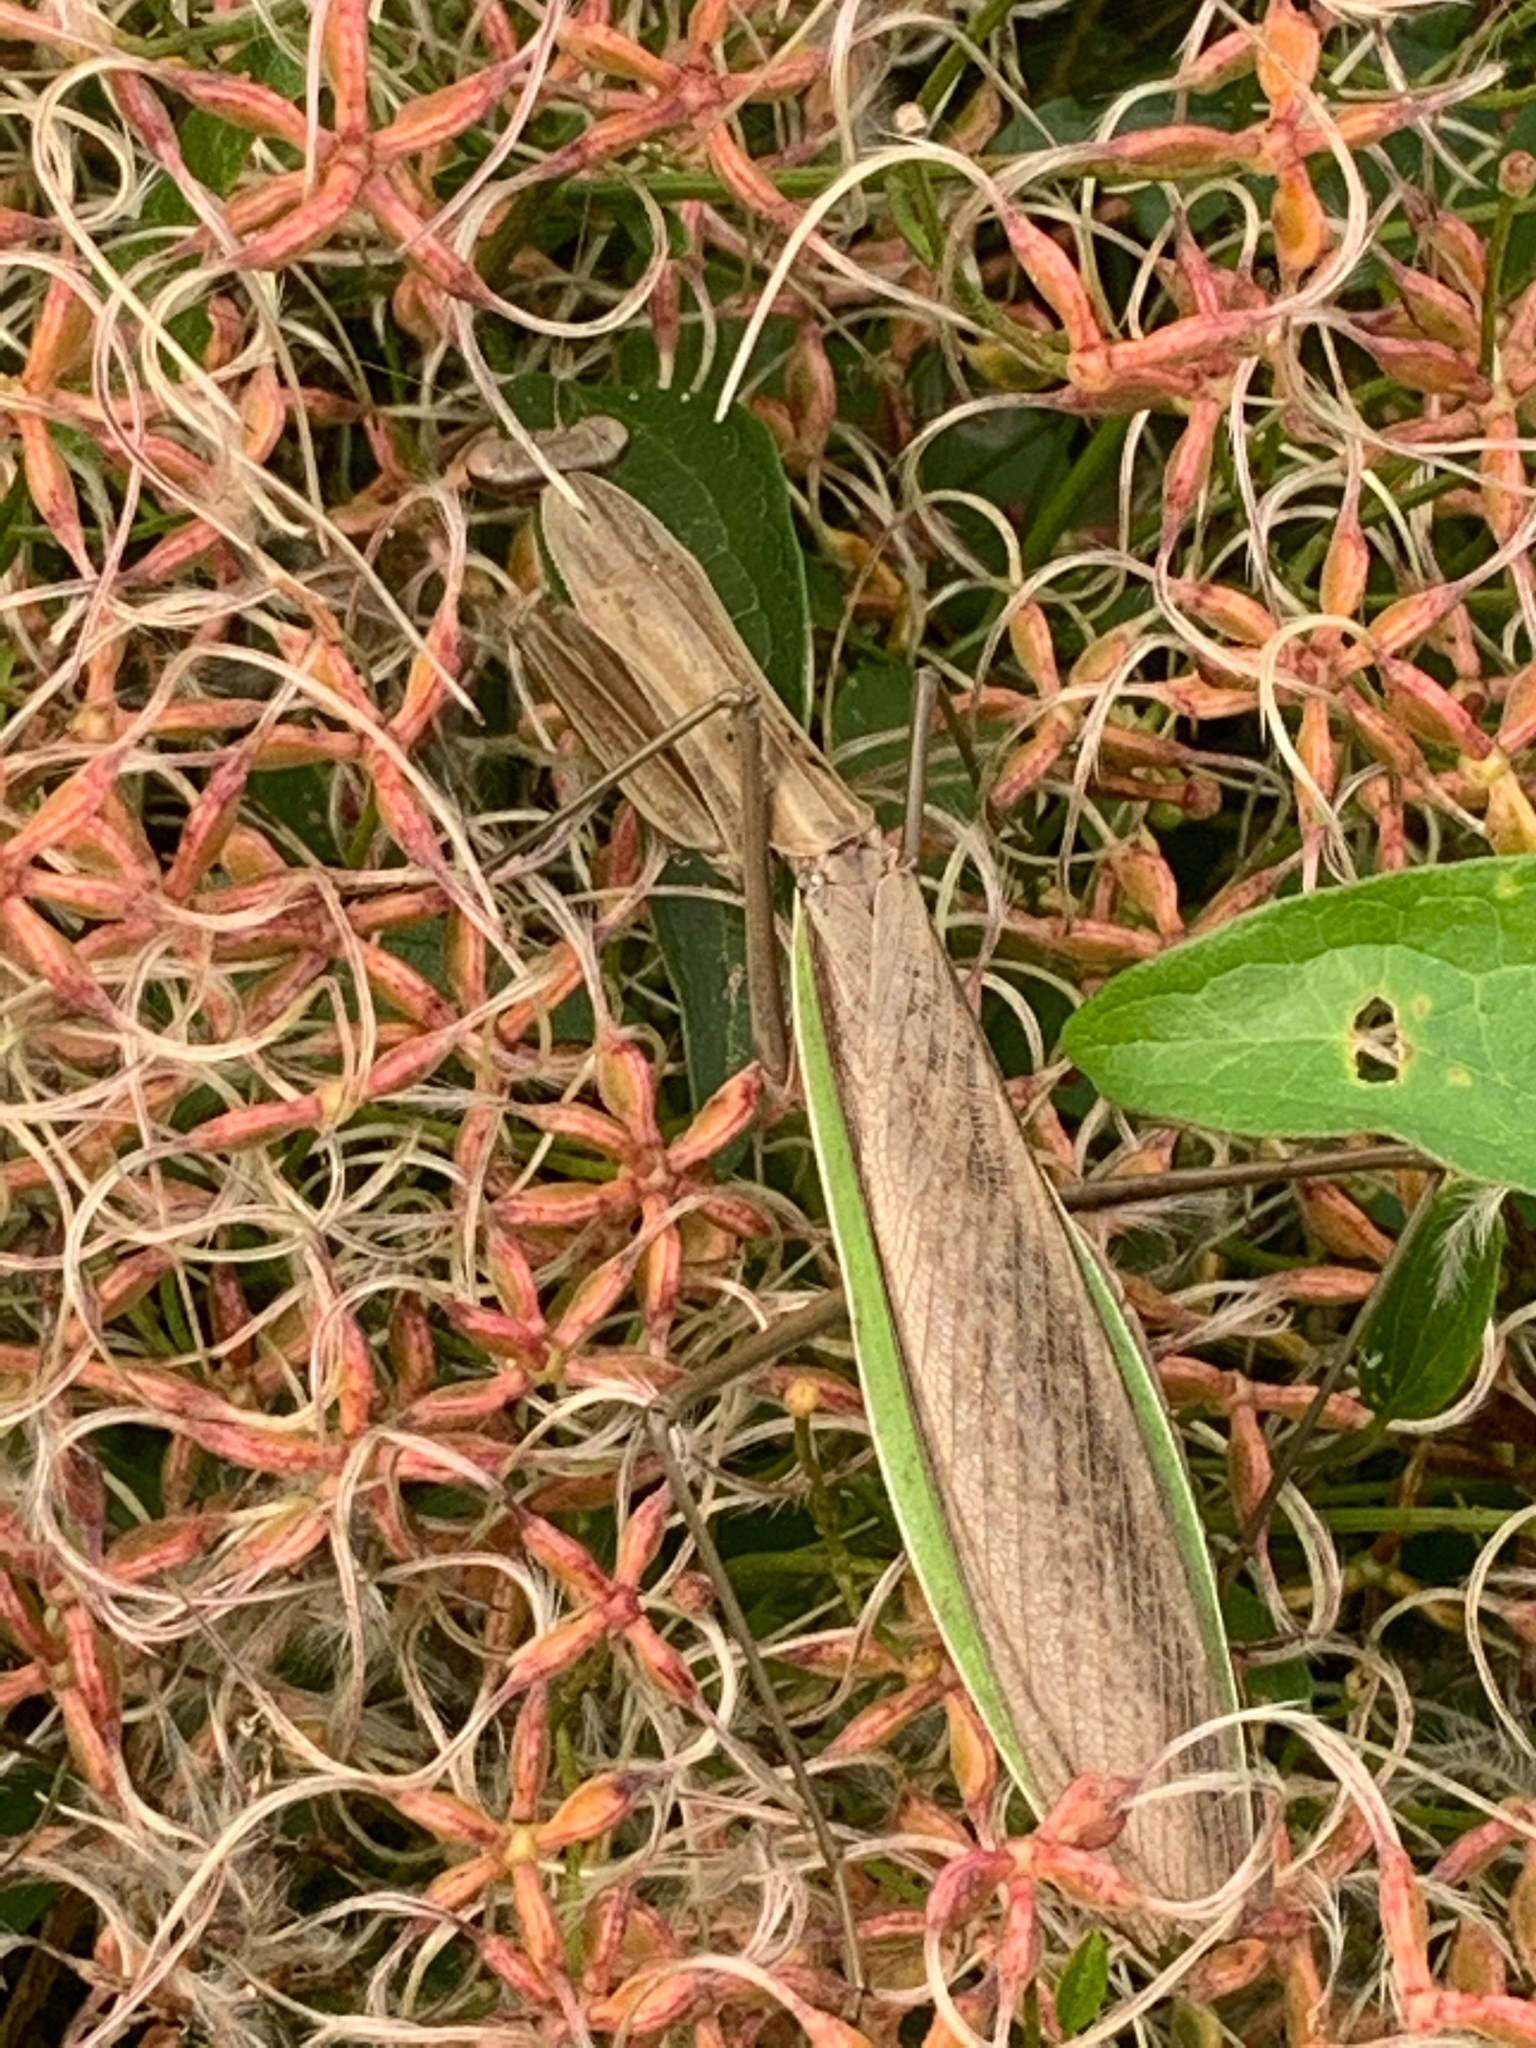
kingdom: Animalia
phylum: Arthropoda
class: Insecta
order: Mantodea
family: Mantidae
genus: Tenodera
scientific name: Tenodera sinensis
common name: Chinese mantis
